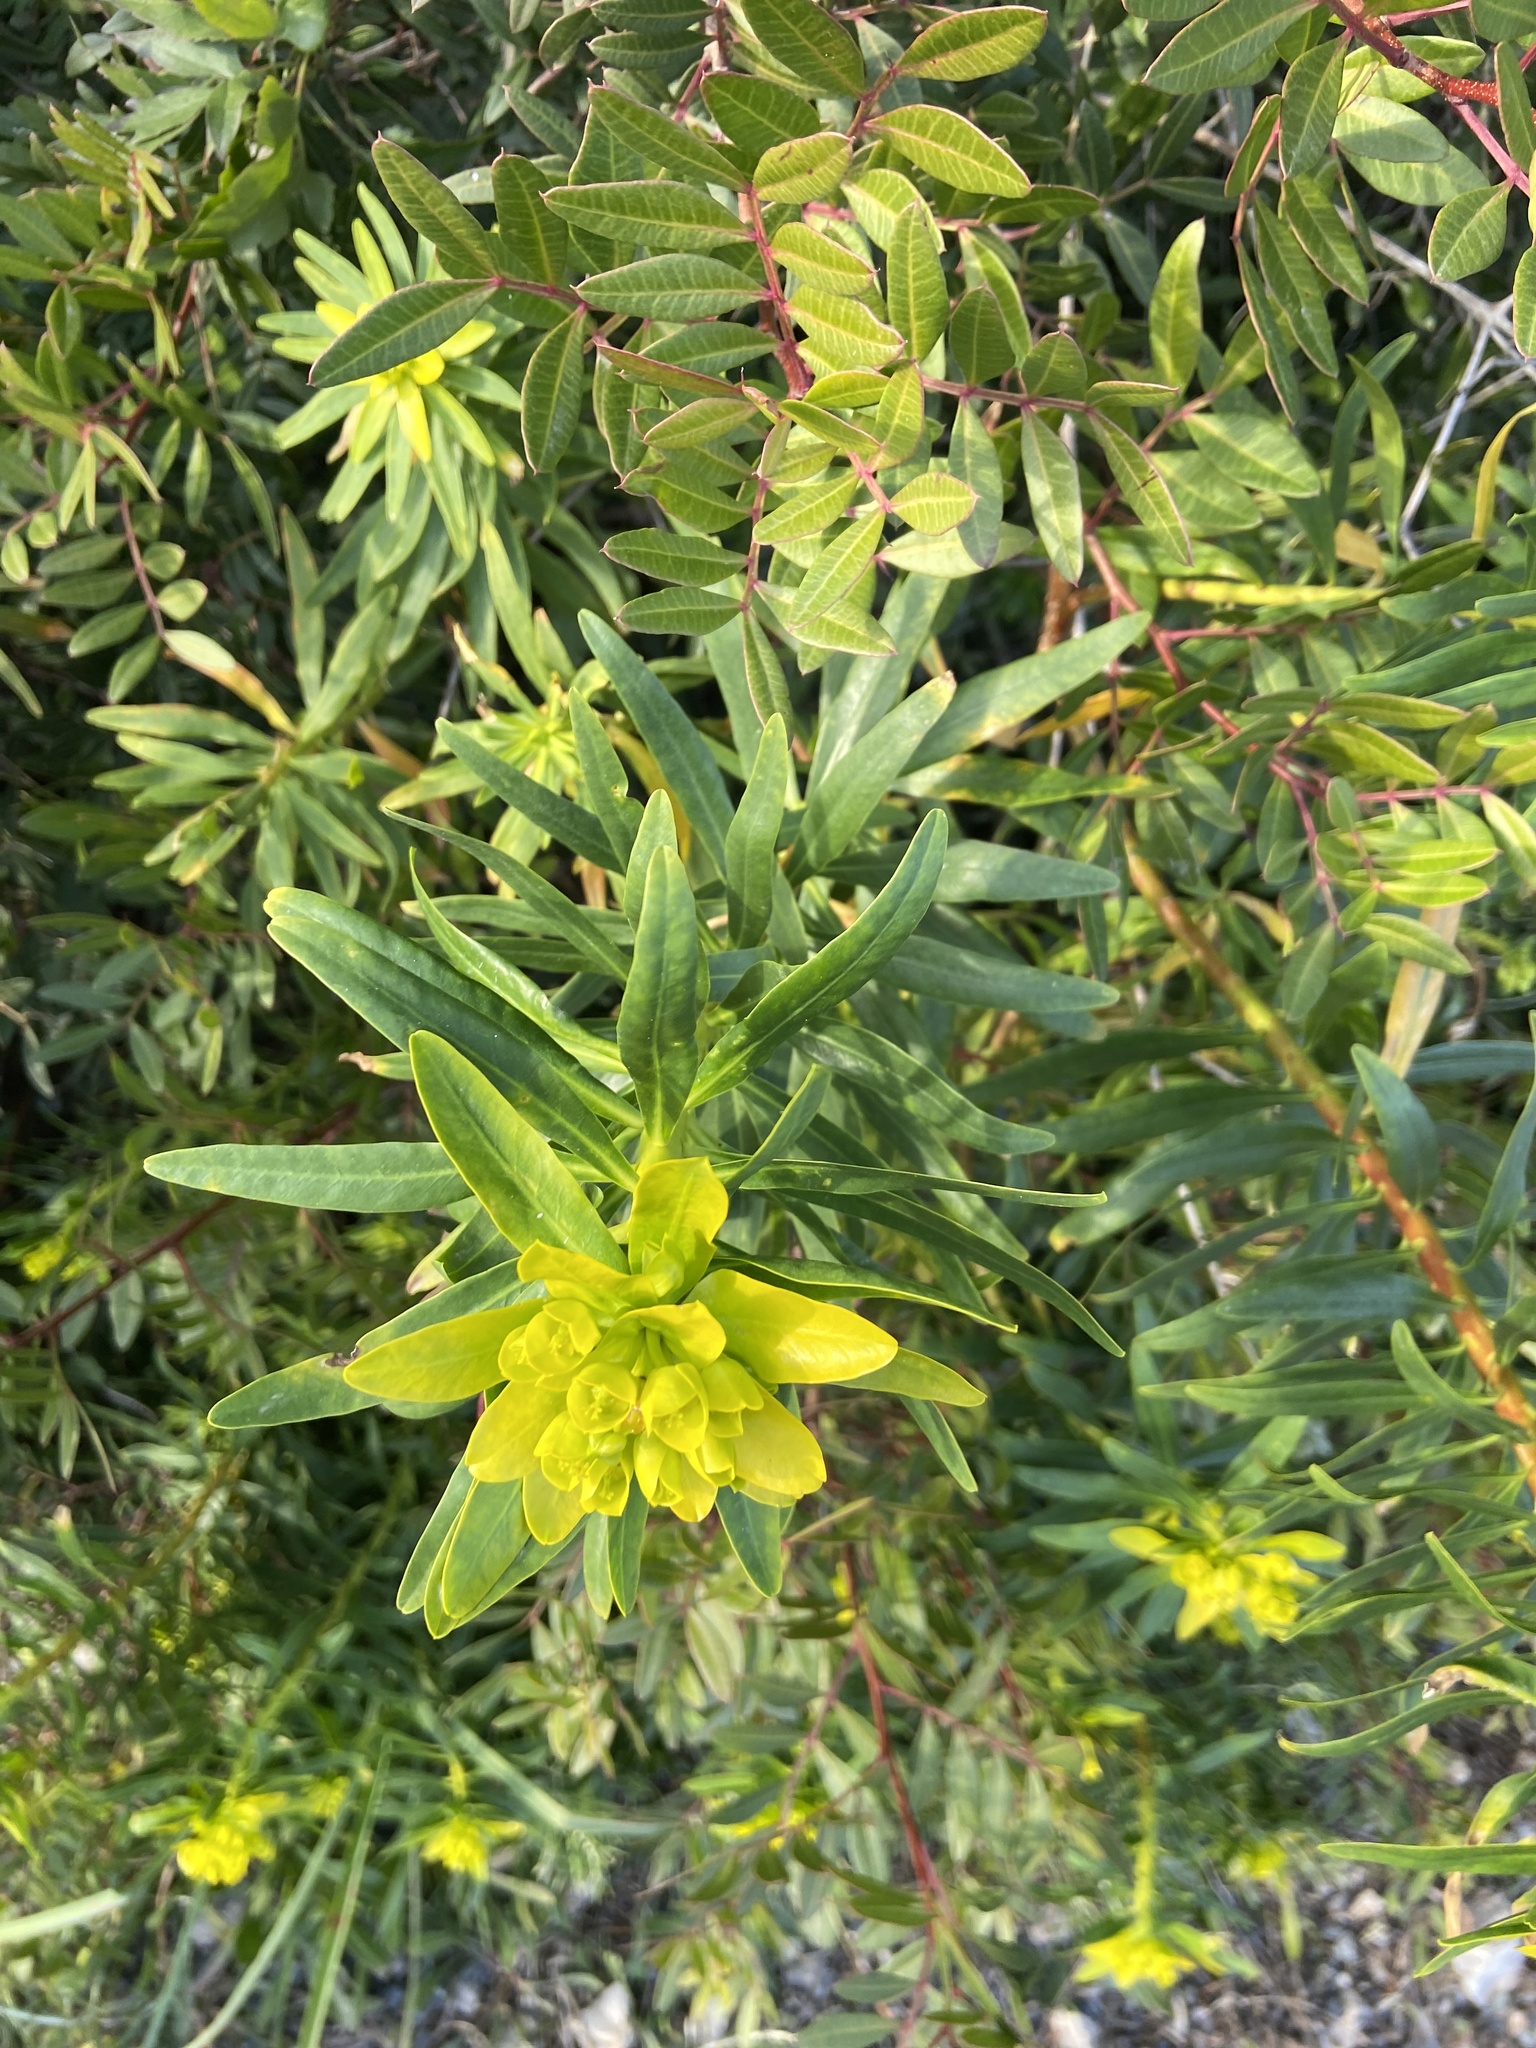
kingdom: Plantae
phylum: Tracheophyta
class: Magnoliopsida
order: Malpighiales
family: Euphorbiaceae
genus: Euphorbia
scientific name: Euphorbia dendroides
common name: Tree spurge
